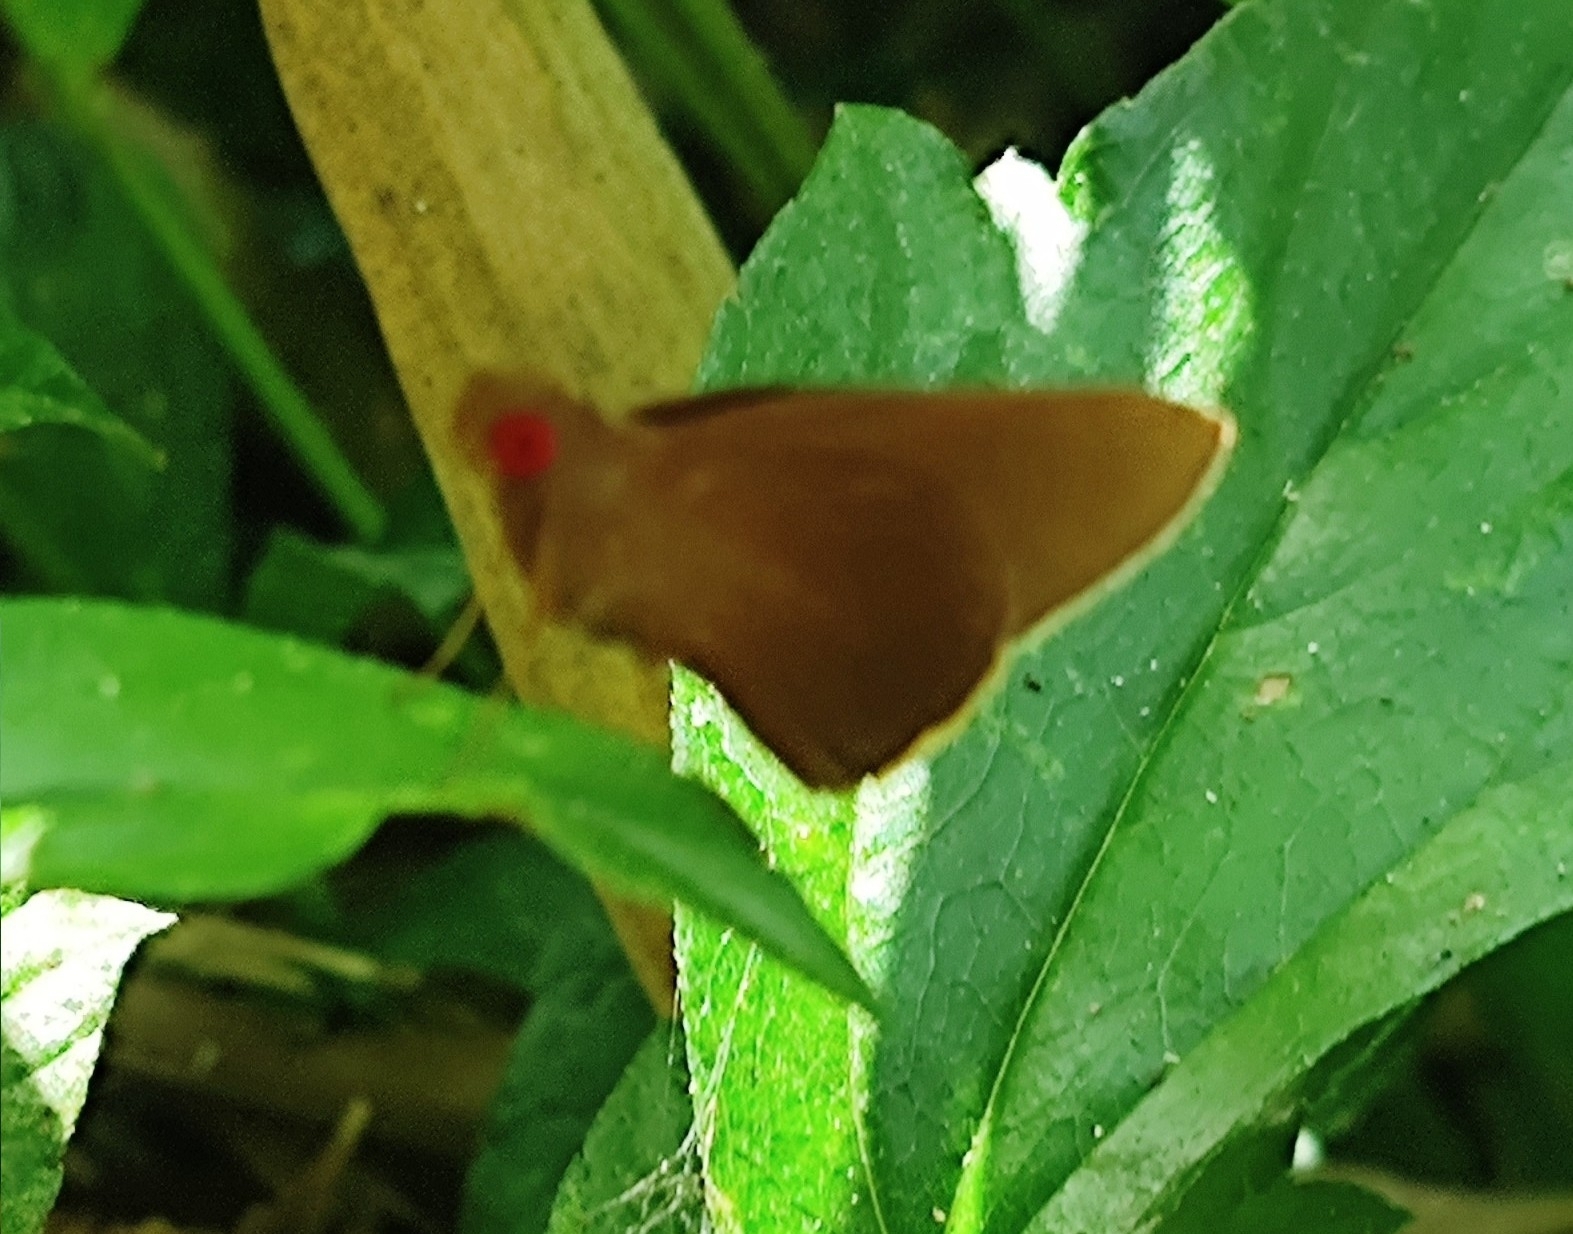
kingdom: Animalia
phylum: Arthropoda
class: Insecta
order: Lepidoptera
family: Hesperiidae
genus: Matapa
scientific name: Matapa aria
